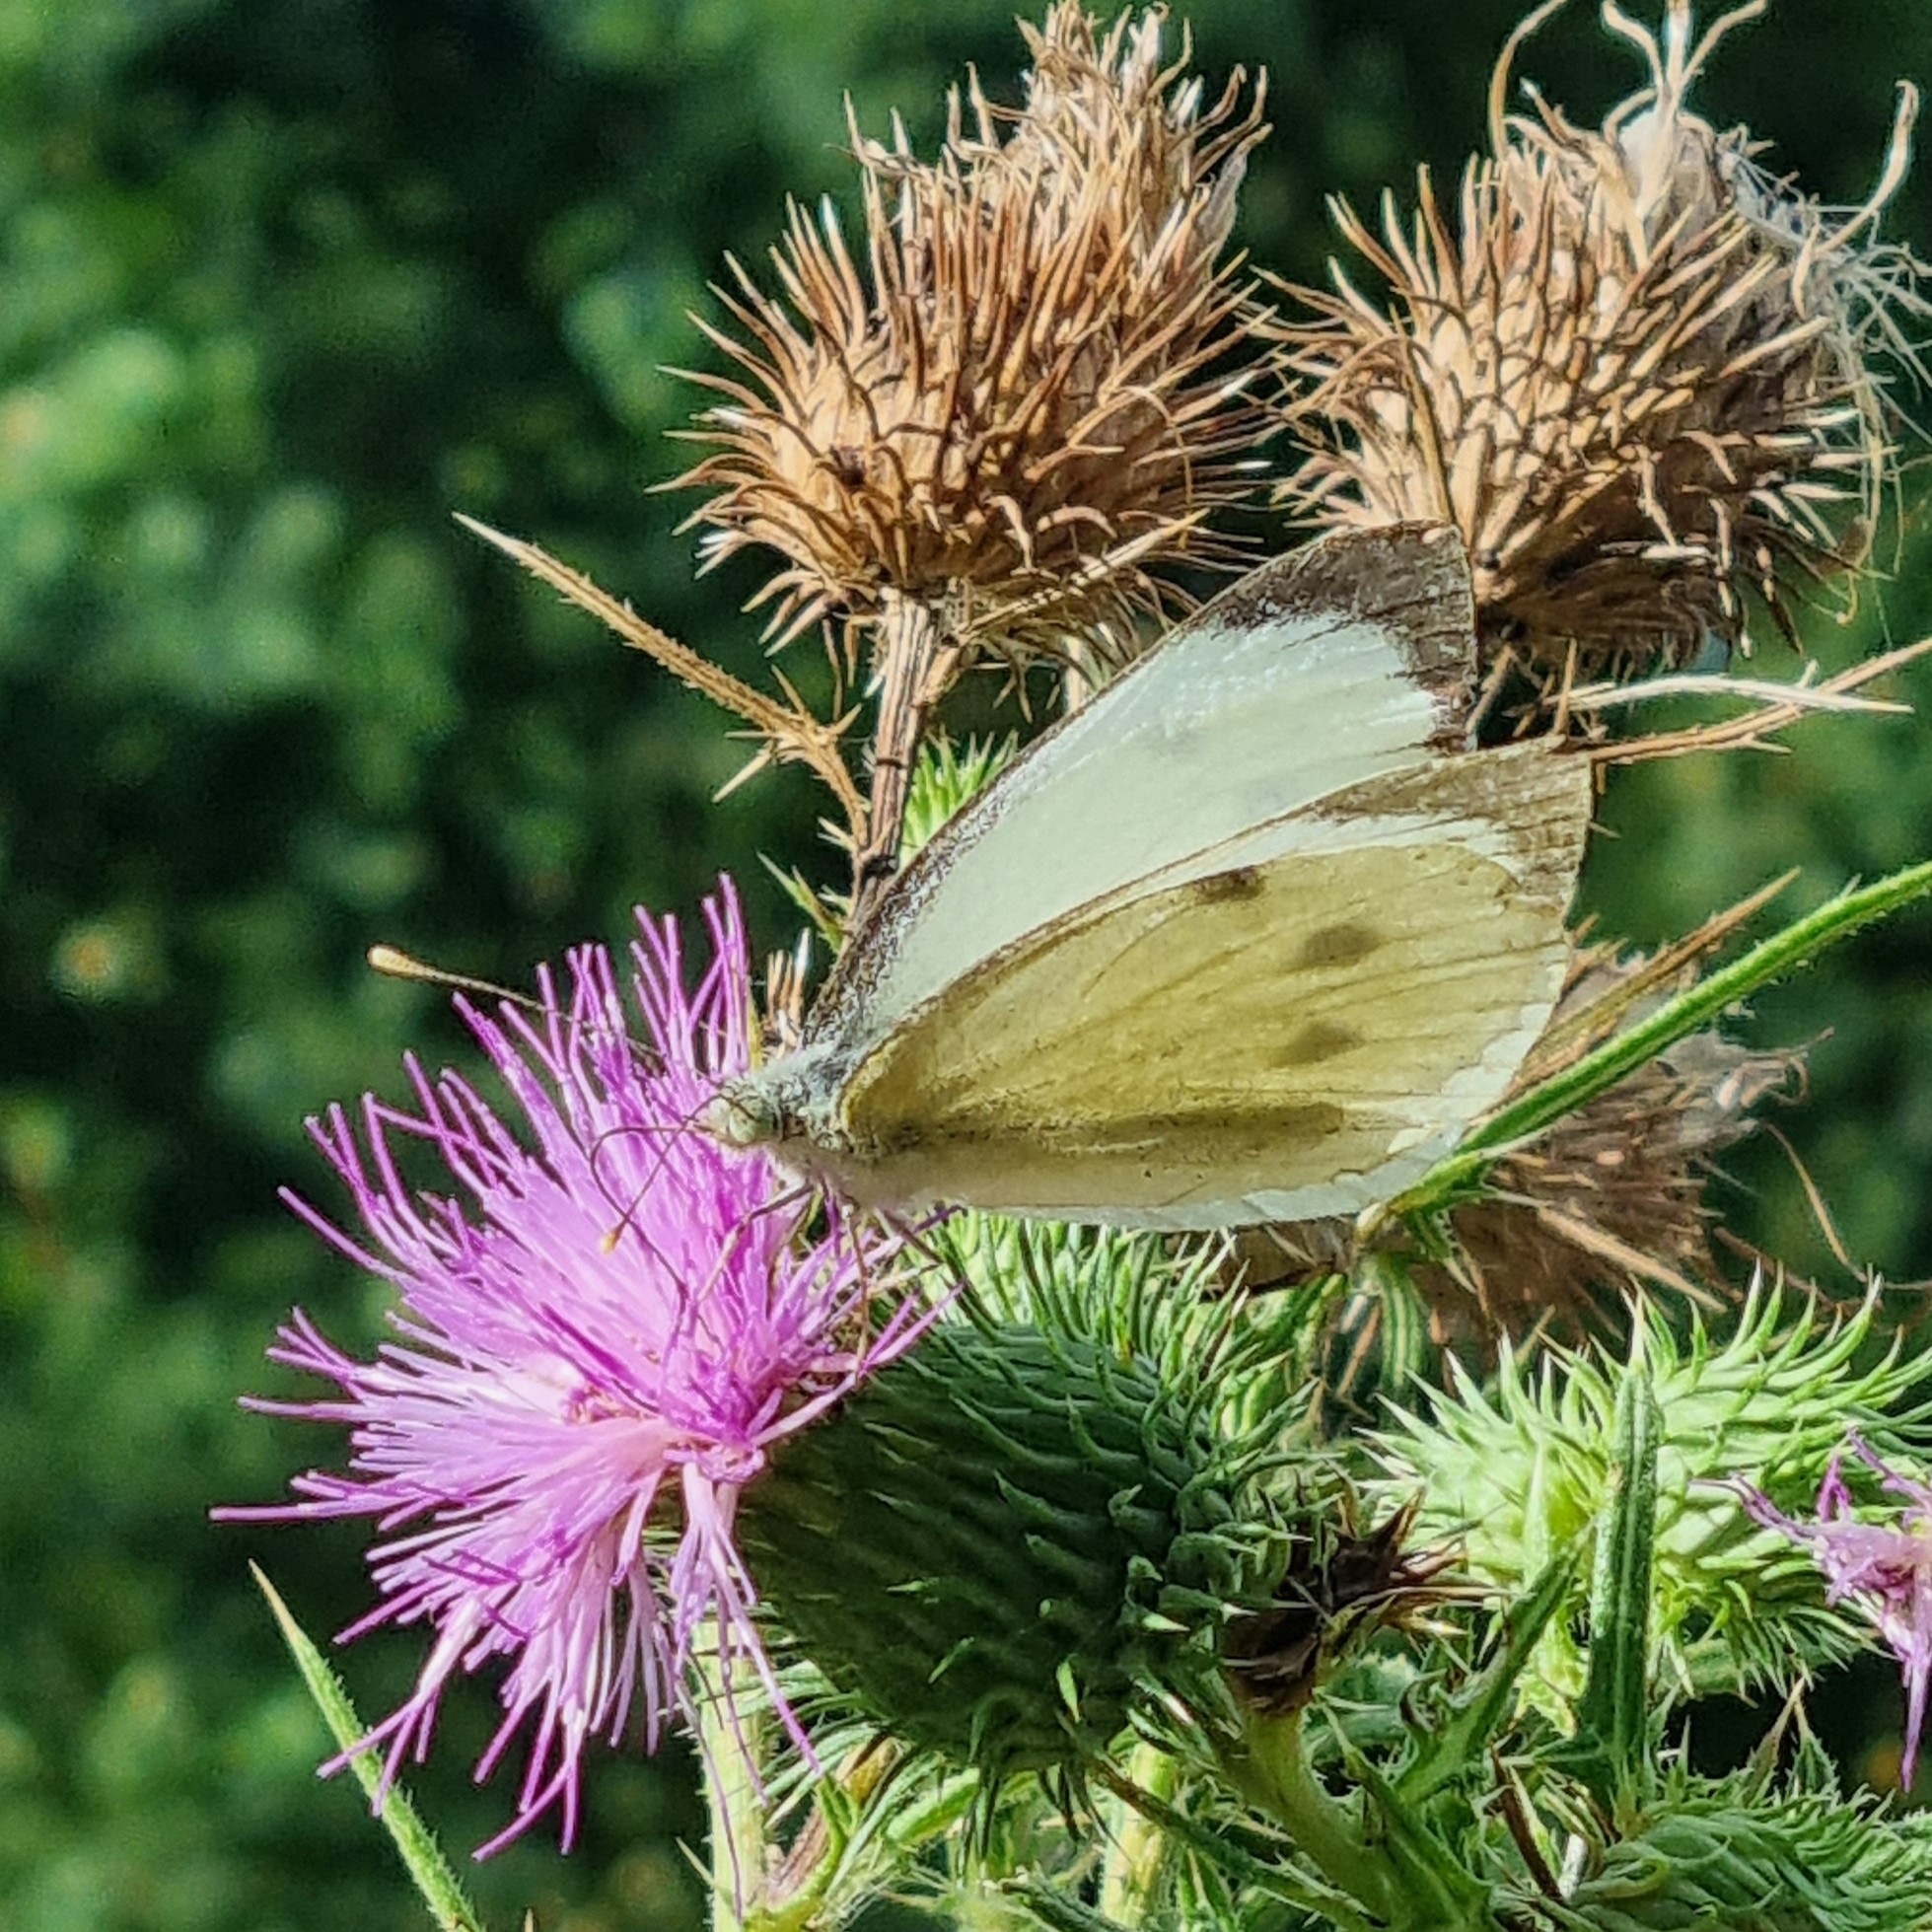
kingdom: Animalia
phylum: Arthropoda
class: Insecta
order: Lepidoptera
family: Pieridae
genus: Pieris
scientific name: Pieris brassicae
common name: Large white
